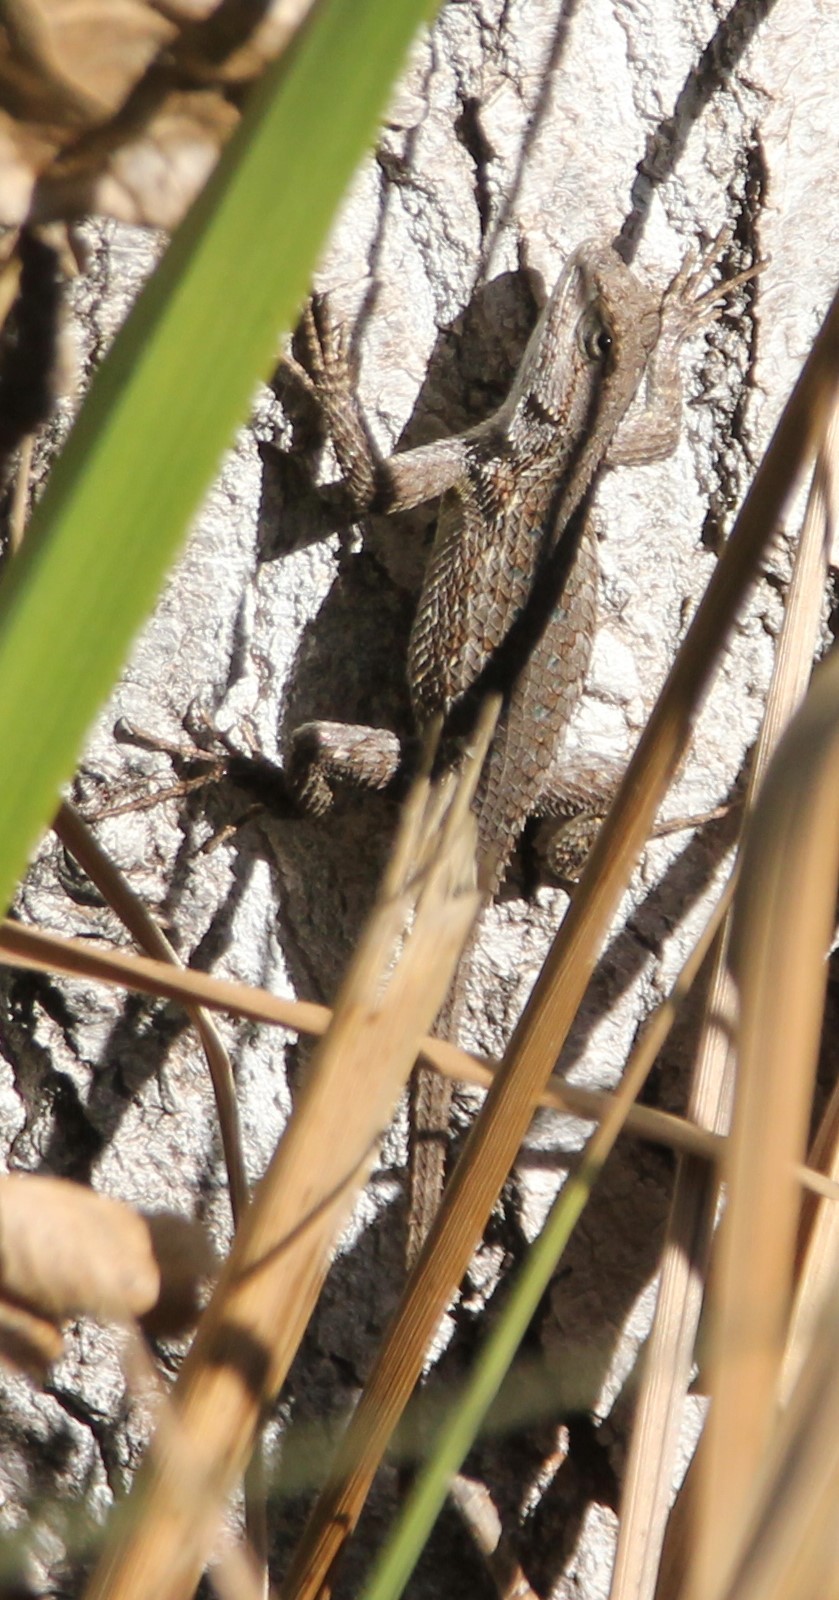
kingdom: Animalia
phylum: Chordata
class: Squamata
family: Phrynosomatidae
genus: Sceloporus
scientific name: Sceloporus occidentalis
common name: Western fence lizard
